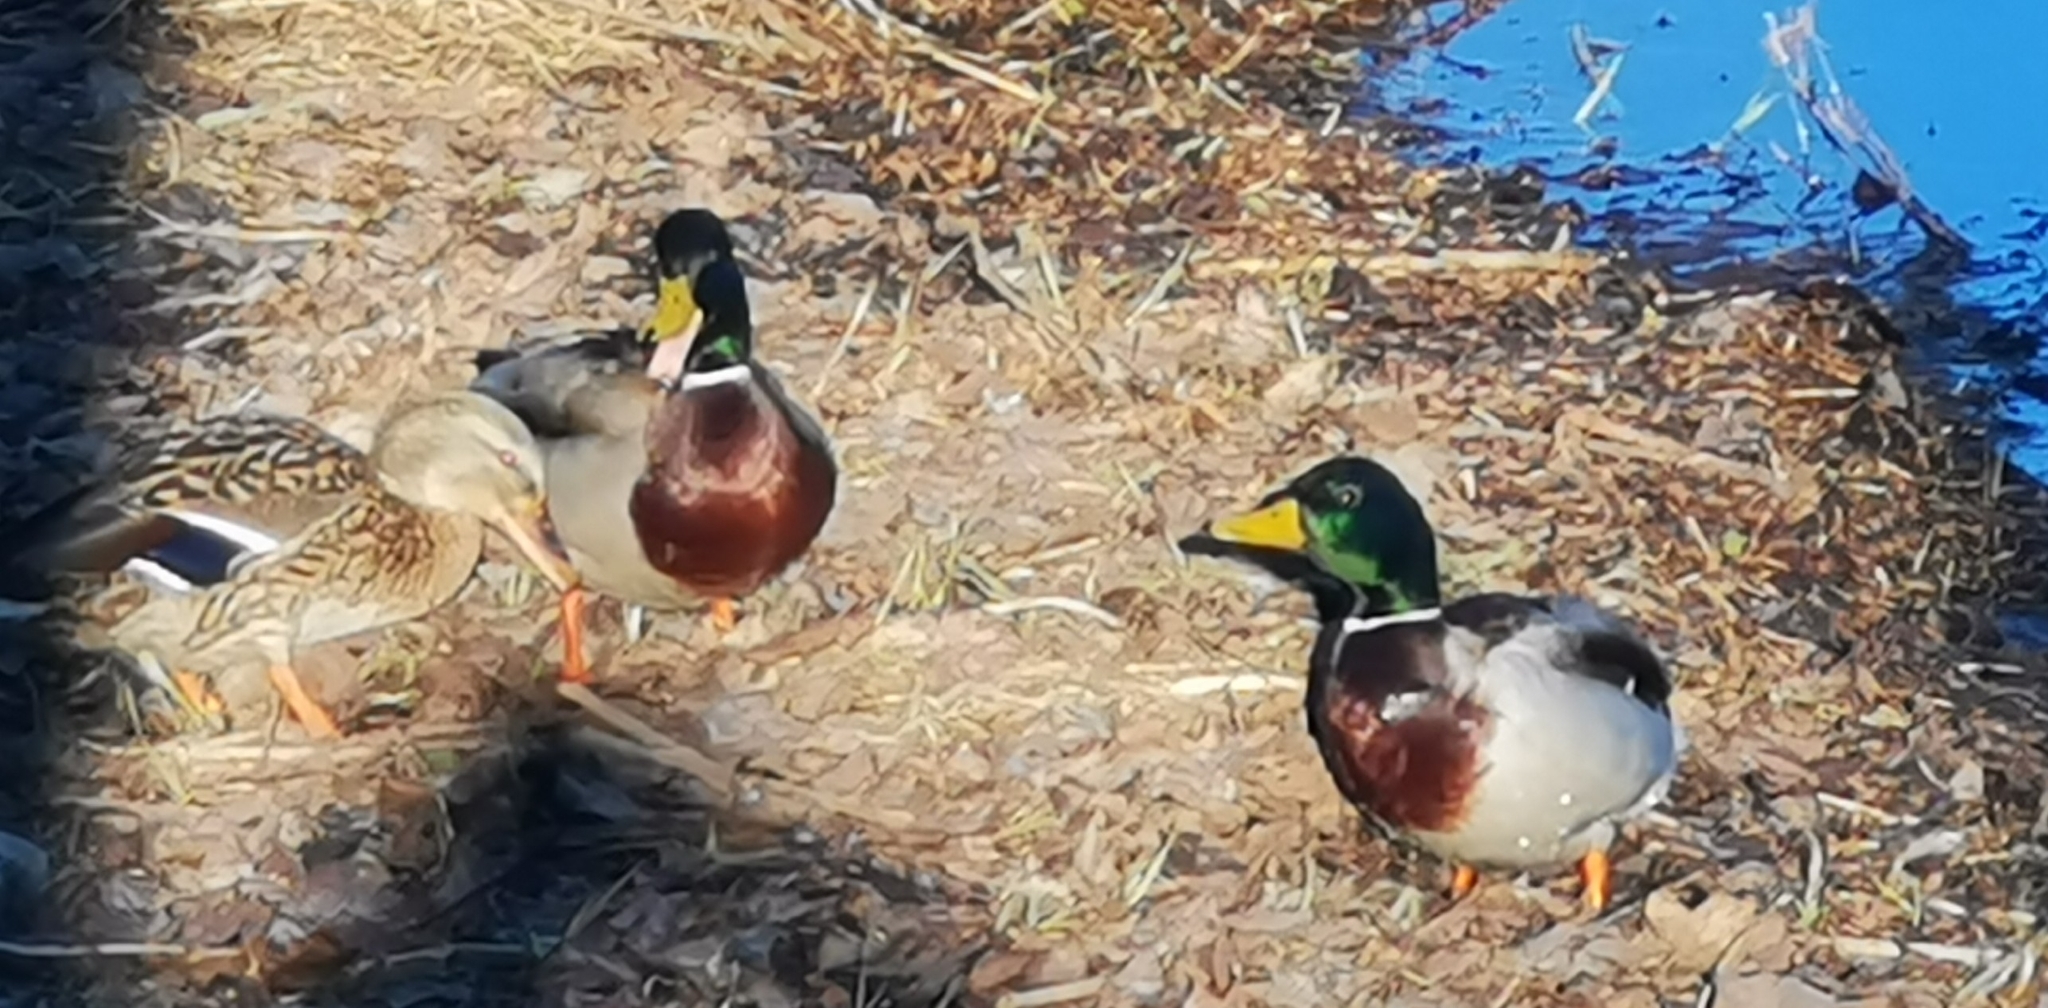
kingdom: Animalia
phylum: Chordata
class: Aves
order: Anseriformes
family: Anatidae
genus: Anas
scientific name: Anas platyrhynchos
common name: Mallard
